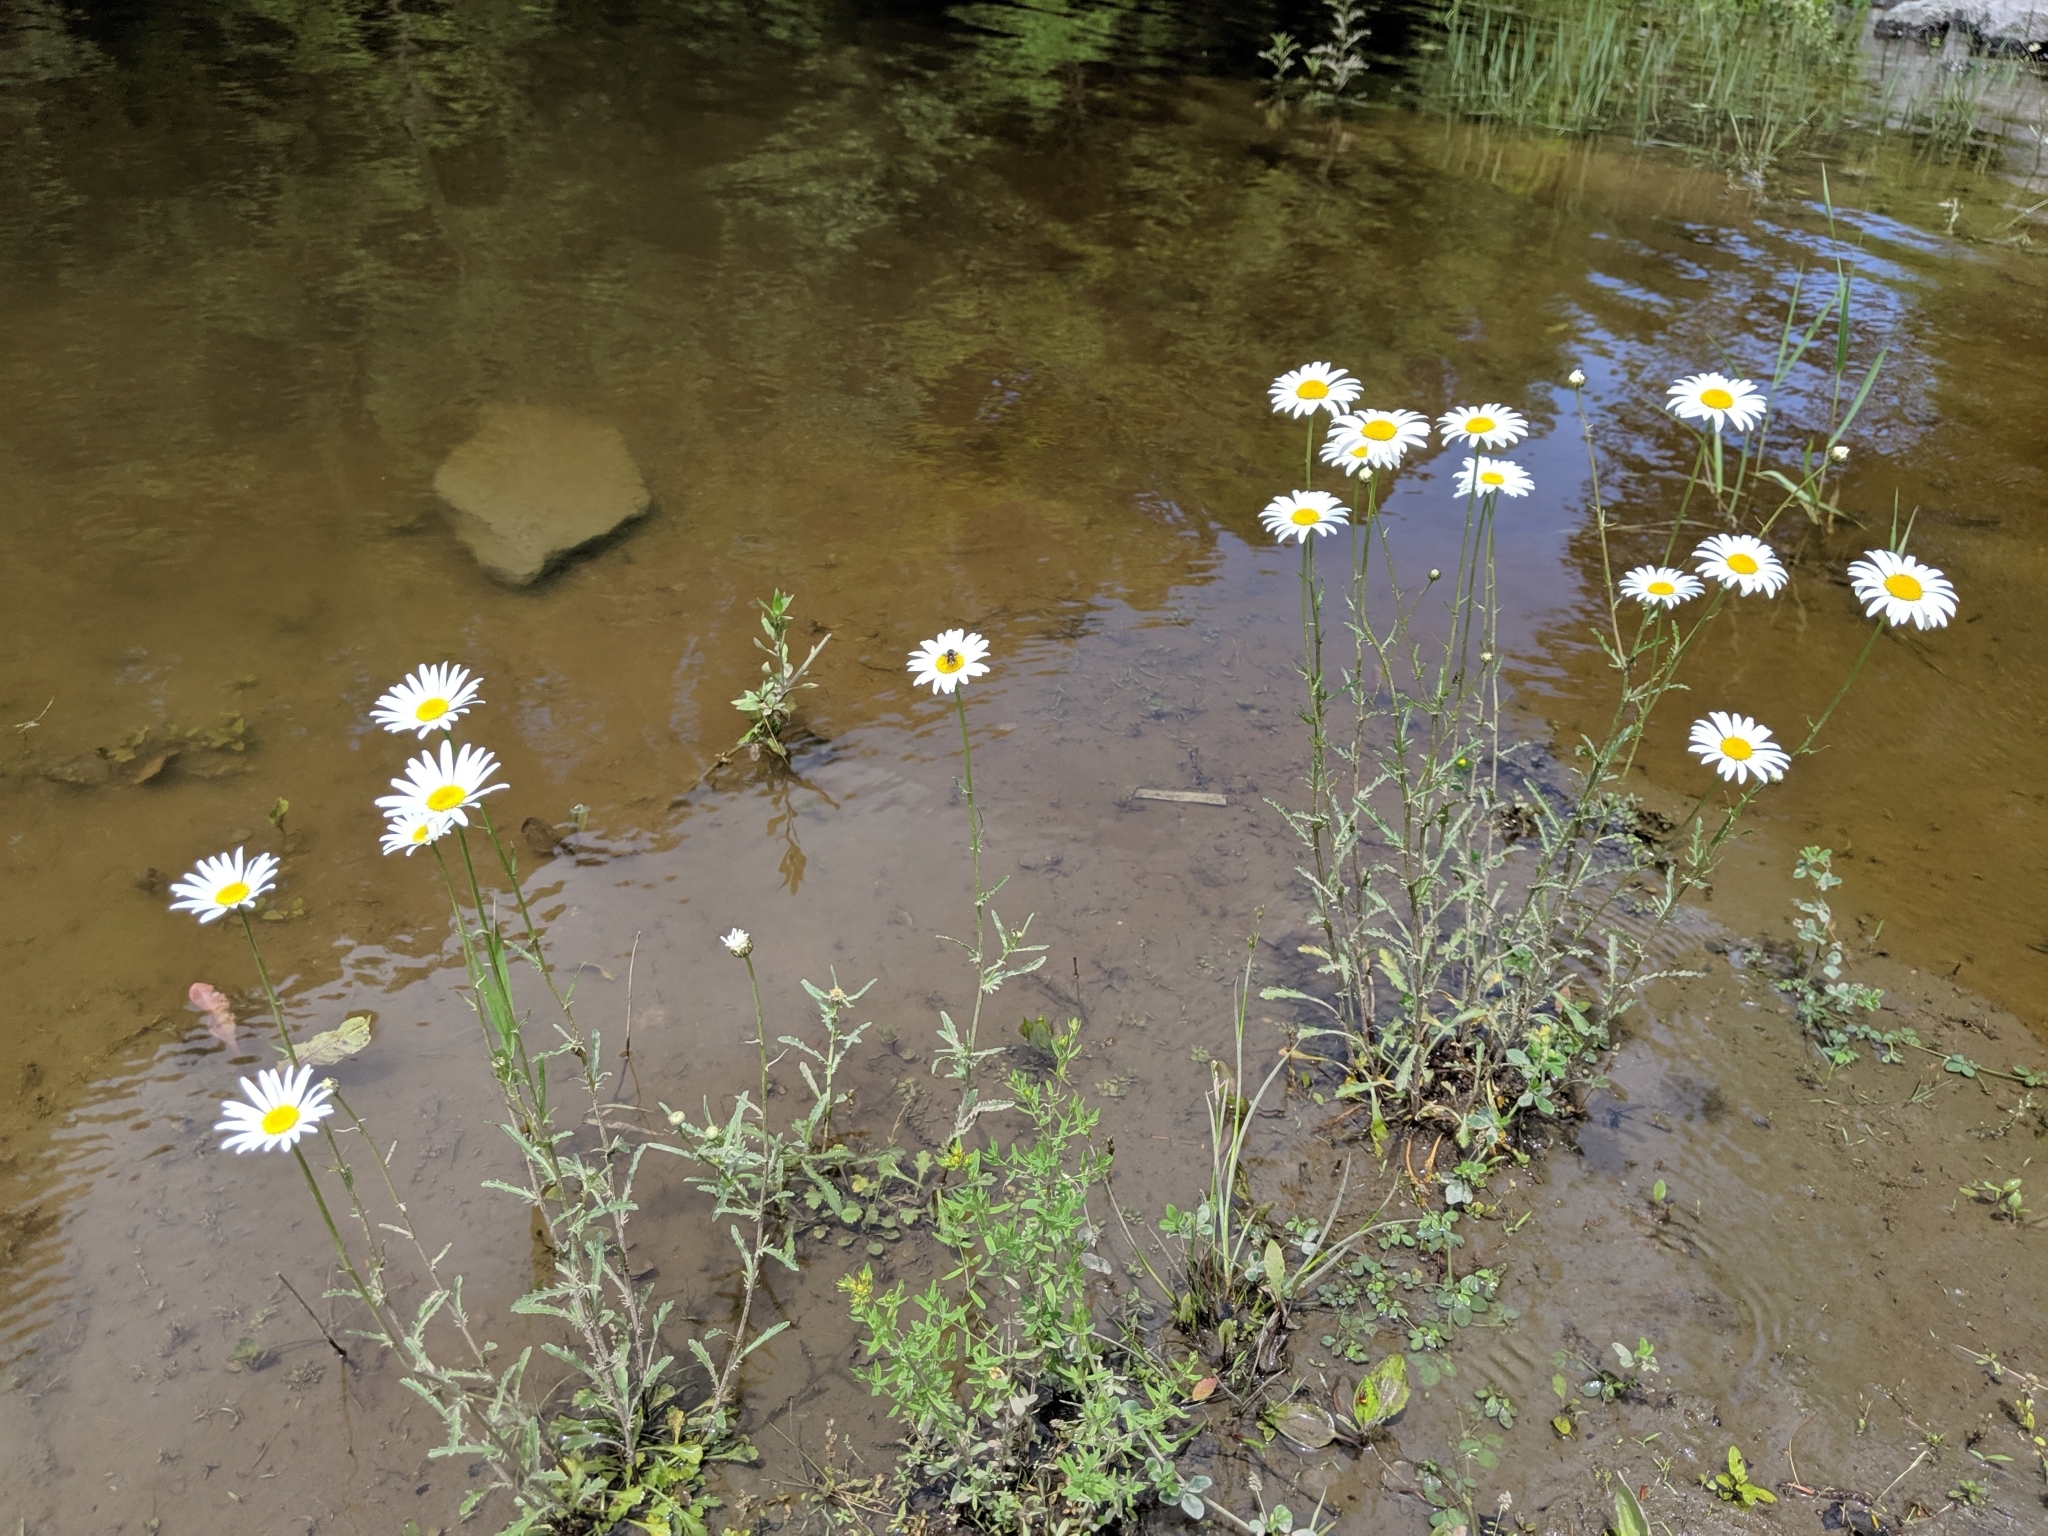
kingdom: Plantae
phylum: Tracheophyta
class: Magnoliopsida
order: Asterales
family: Asteraceae
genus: Leucanthemum
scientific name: Leucanthemum vulgare
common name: Oxeye daisy
